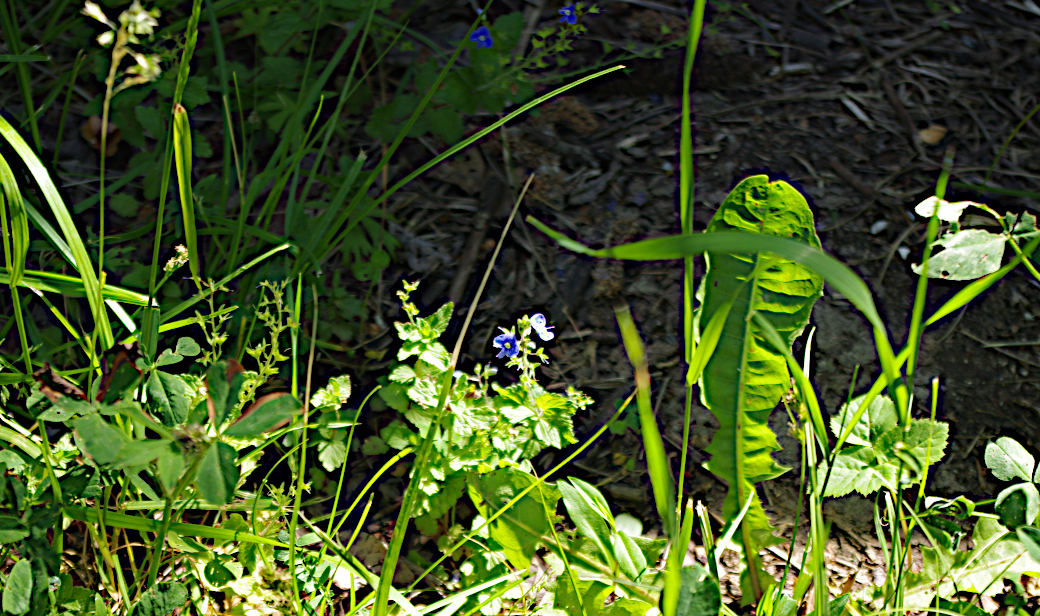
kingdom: Plantae
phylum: Tracheophyta
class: Magnoliopsida
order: Lamiales
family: Plantaginaceae
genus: Veronica
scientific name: Veronica chamaedrys
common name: Germander speedwell
